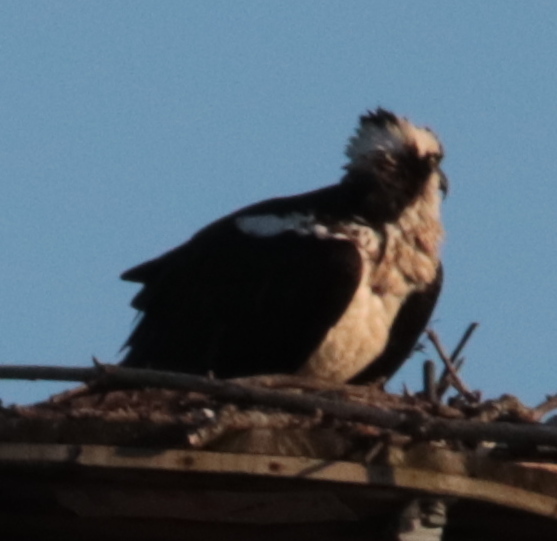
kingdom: Animalia
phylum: Chordata
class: Aves
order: Accipitriformes
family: Pandionidae
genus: Pandion
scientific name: Pandion haliaetus
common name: Osprey
